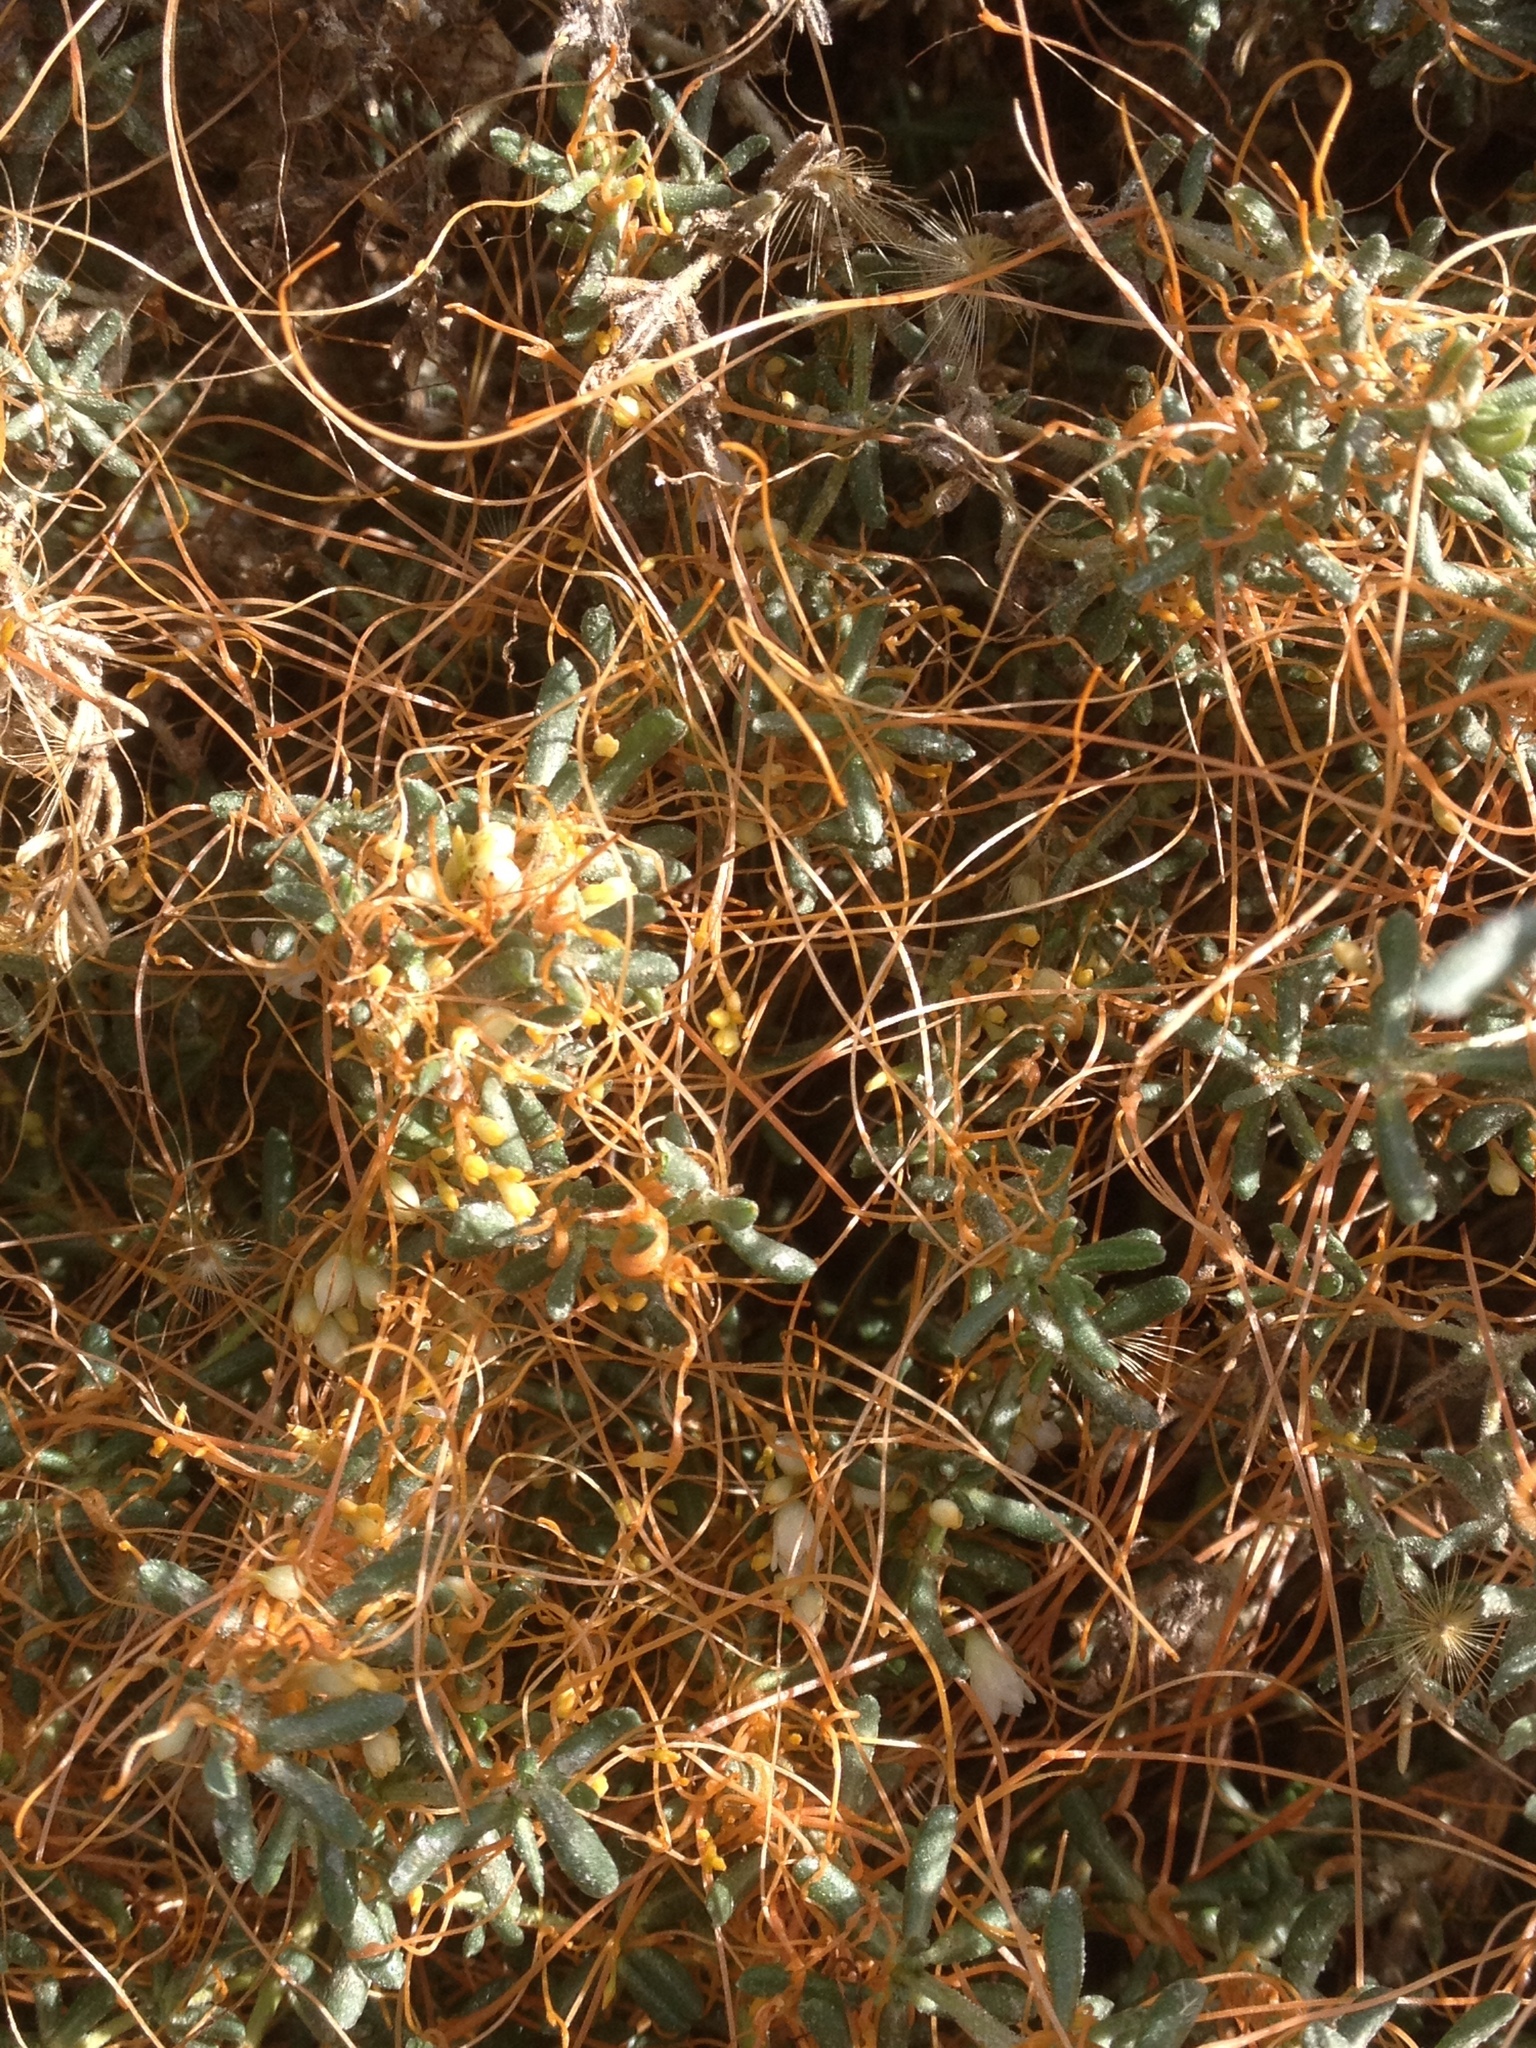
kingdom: Plantae
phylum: Tracheophyta
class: Magnoliopsida
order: Solanales
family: Convolvulaceae
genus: Cuscuta
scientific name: Cuscuta pacifica
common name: Large saltmarsh dodder
